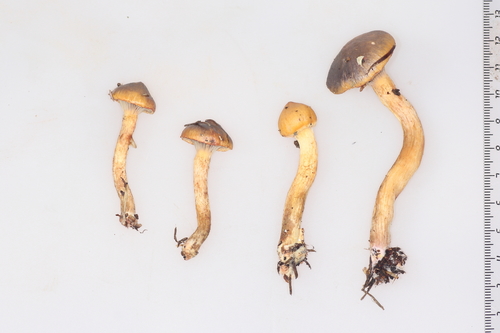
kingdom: Fungi
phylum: Basidiomycota
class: Agaricomycetes
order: Boletales
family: Gomphidiaceae
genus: Chroogomphus
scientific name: Chroogomphus rutilus
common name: Copper spike
